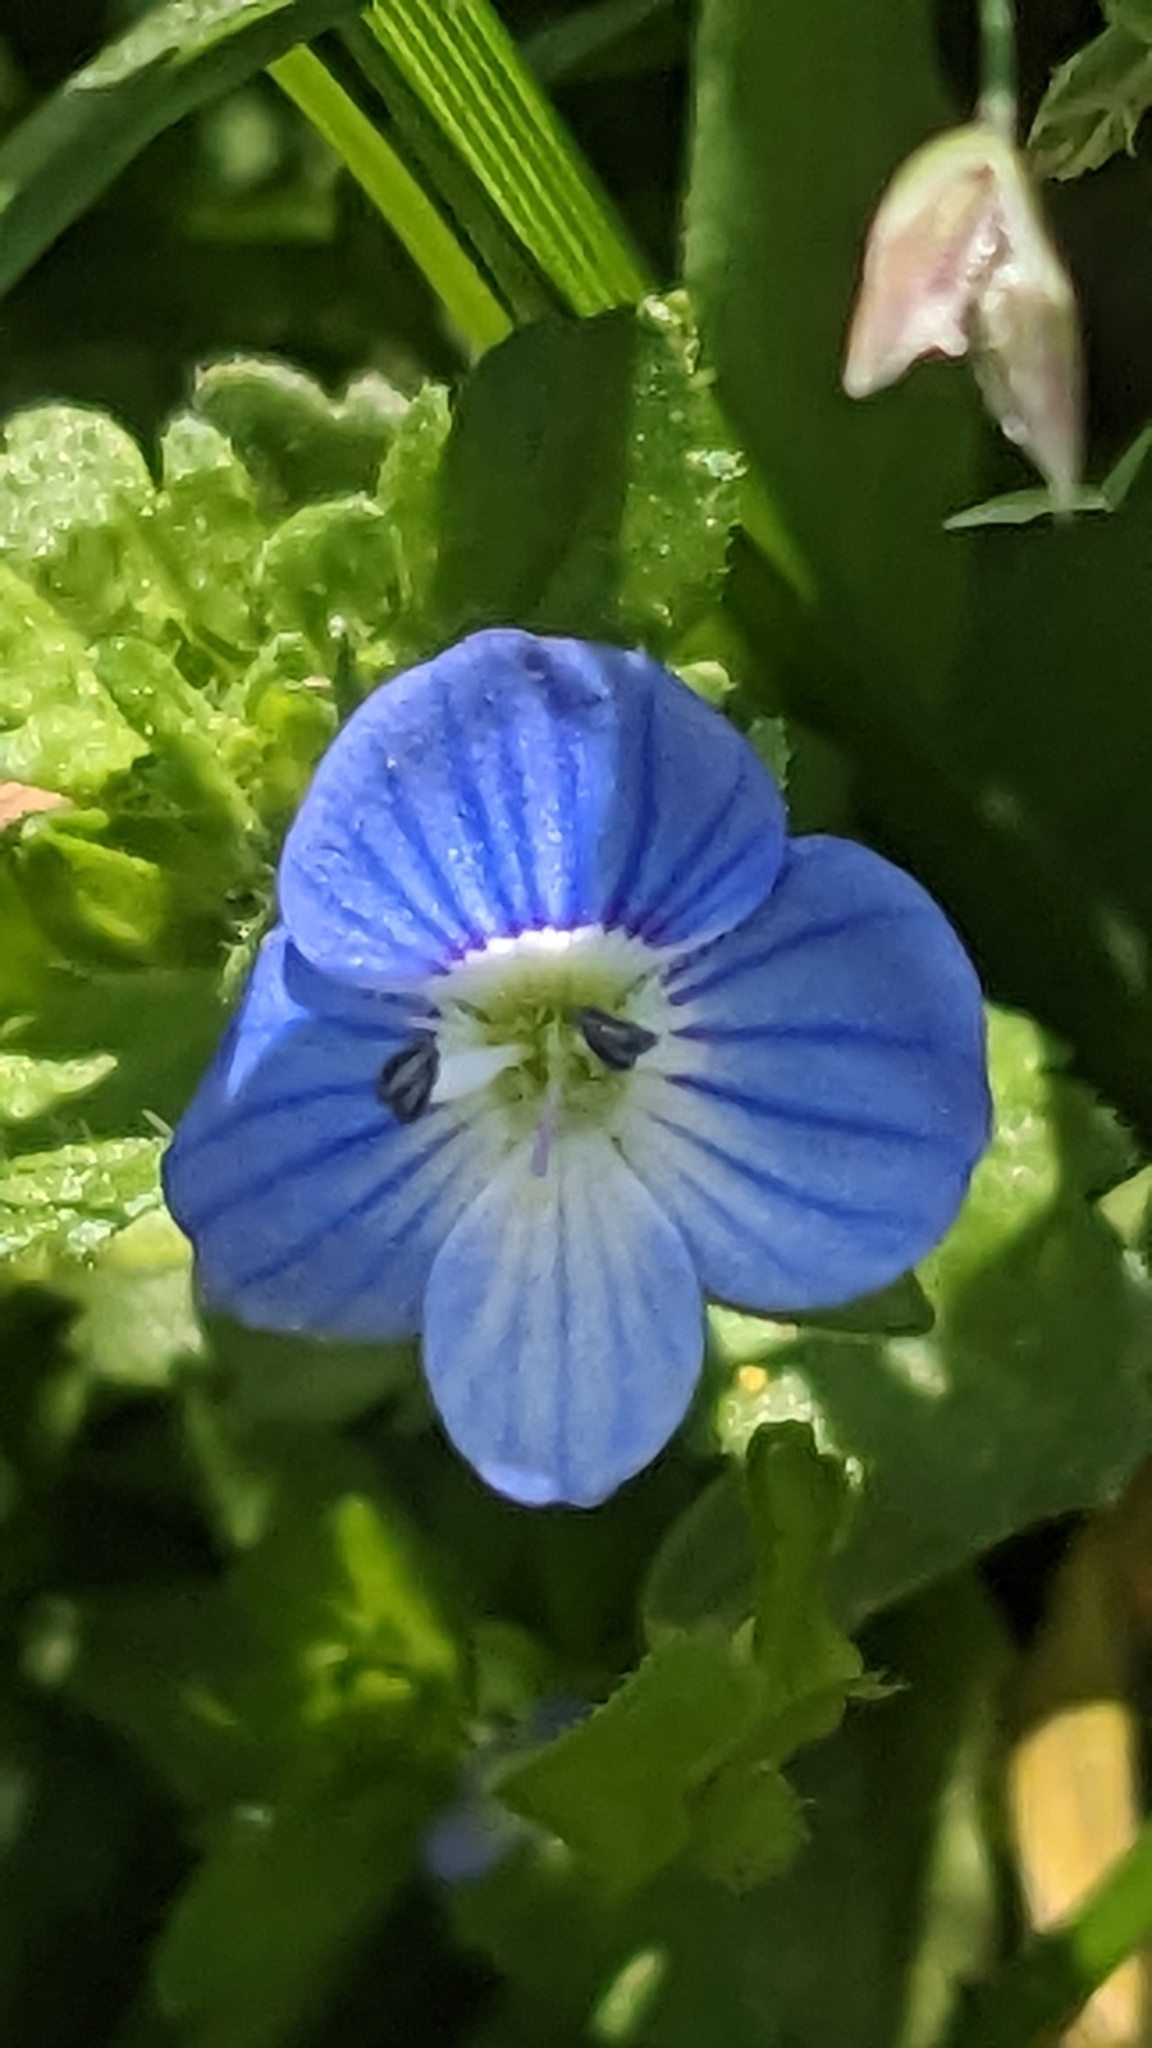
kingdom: Plantae
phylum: Tracheophyta
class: Magnoliopsida
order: Lamiales
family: Plantaginaceae
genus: Veronica
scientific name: Veronica persica
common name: Common field-speedwell
